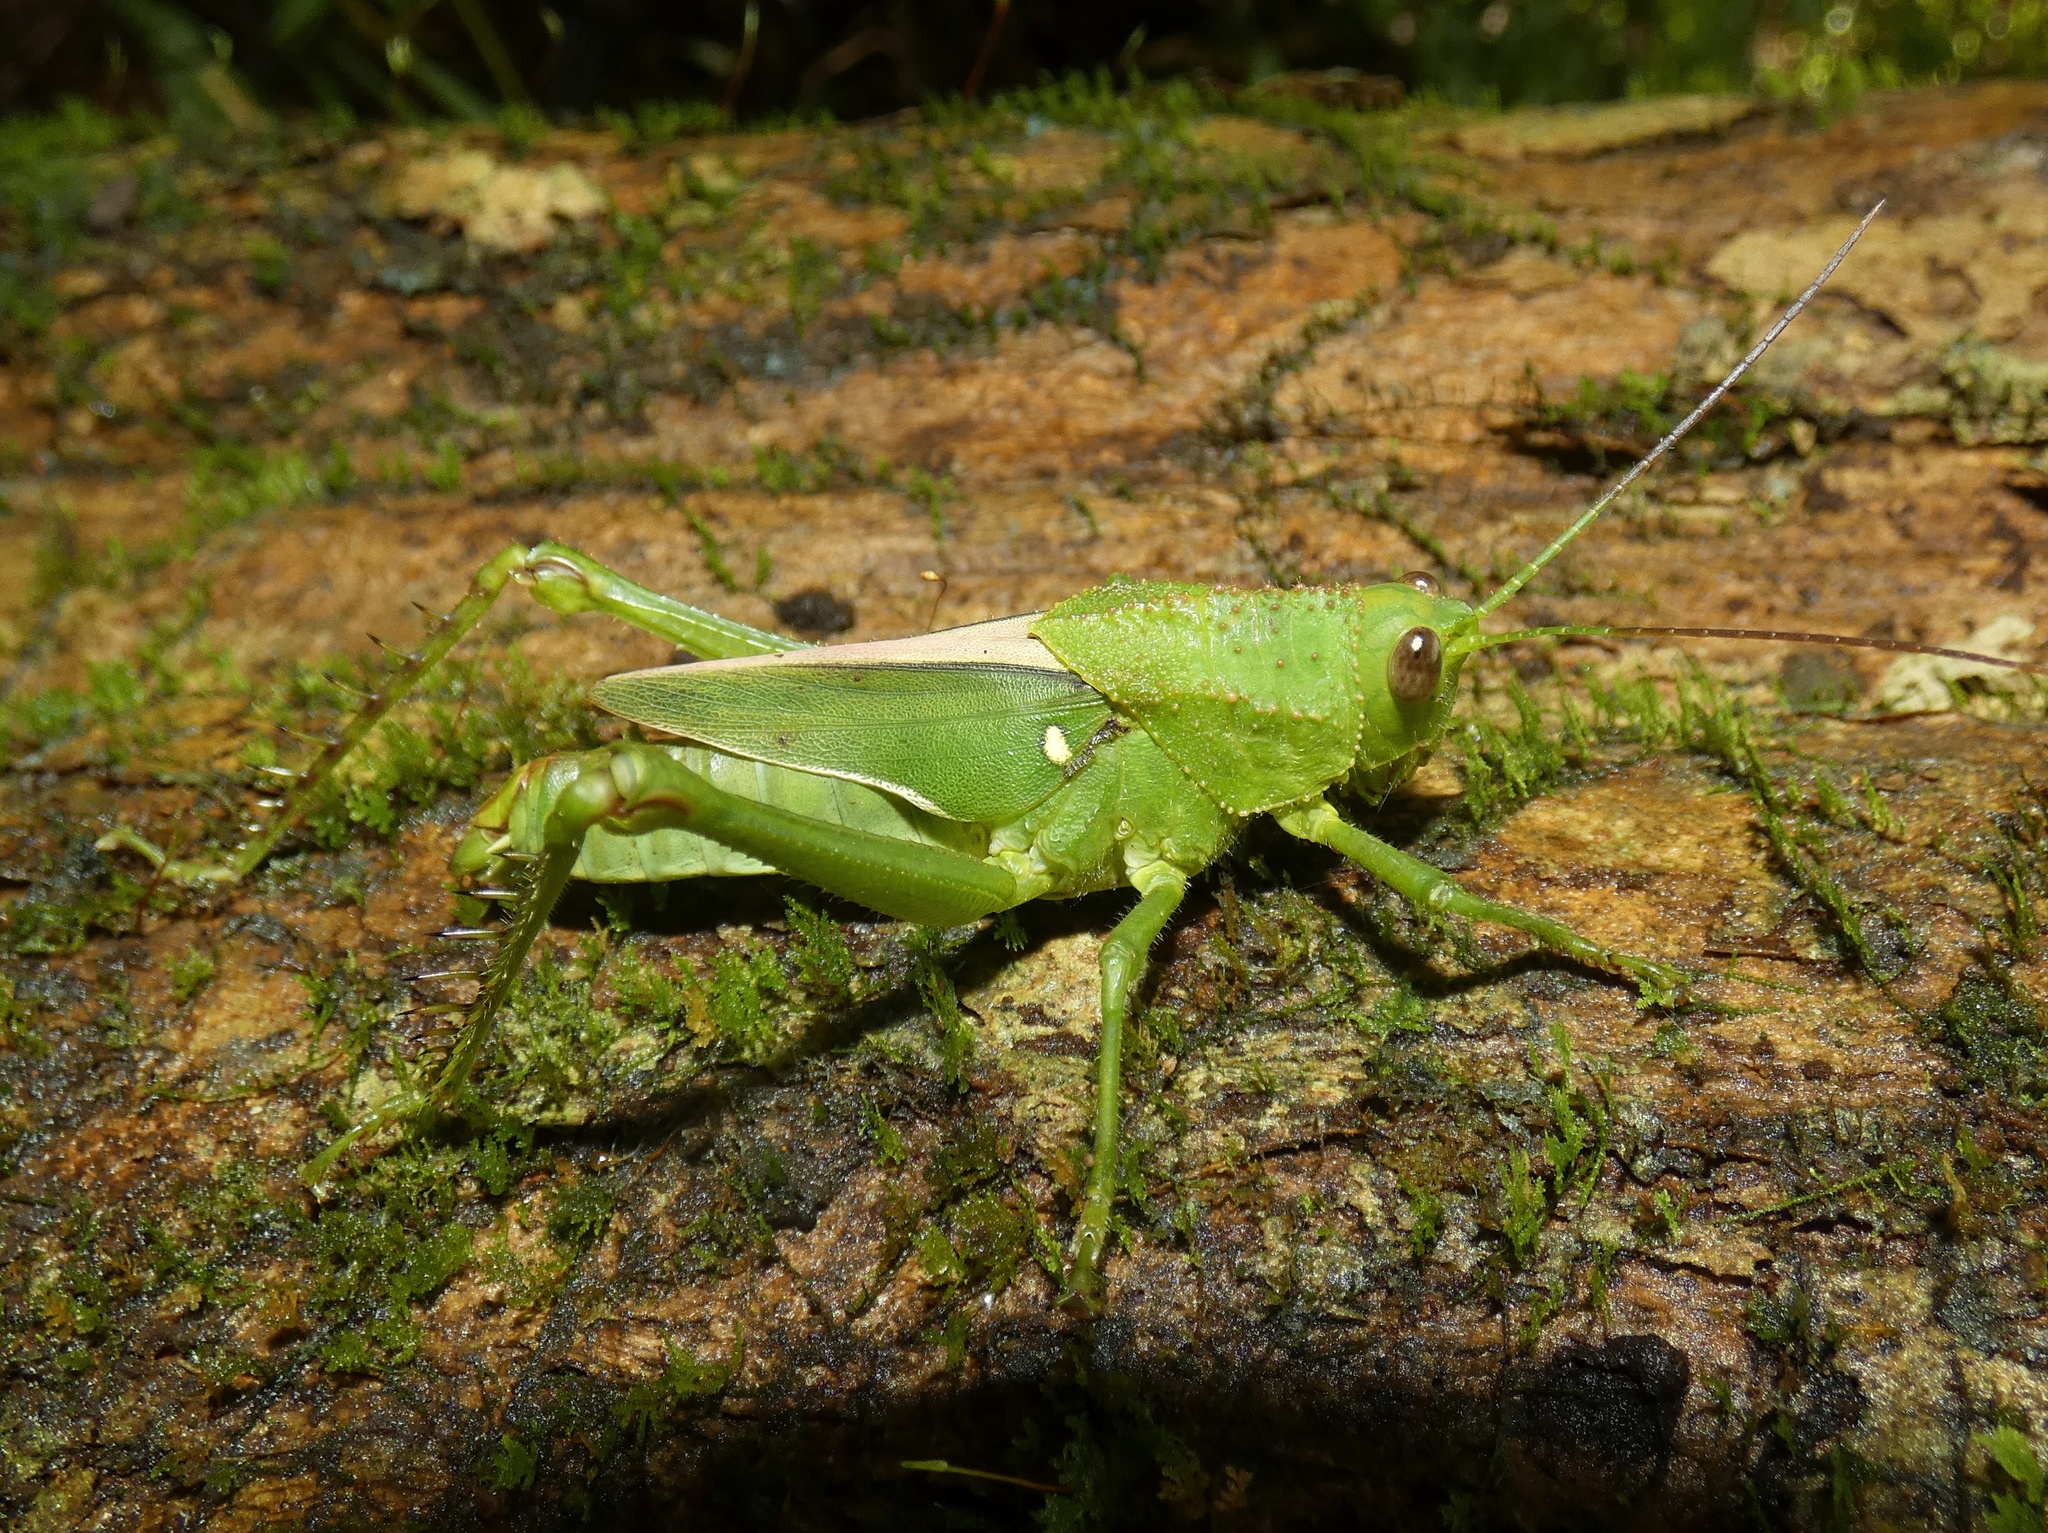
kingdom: Animalia
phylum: Arthropoda
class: Insecta
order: Orthoptera
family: Romaleidae
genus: Agriacris
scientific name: Agriacris tricristata
